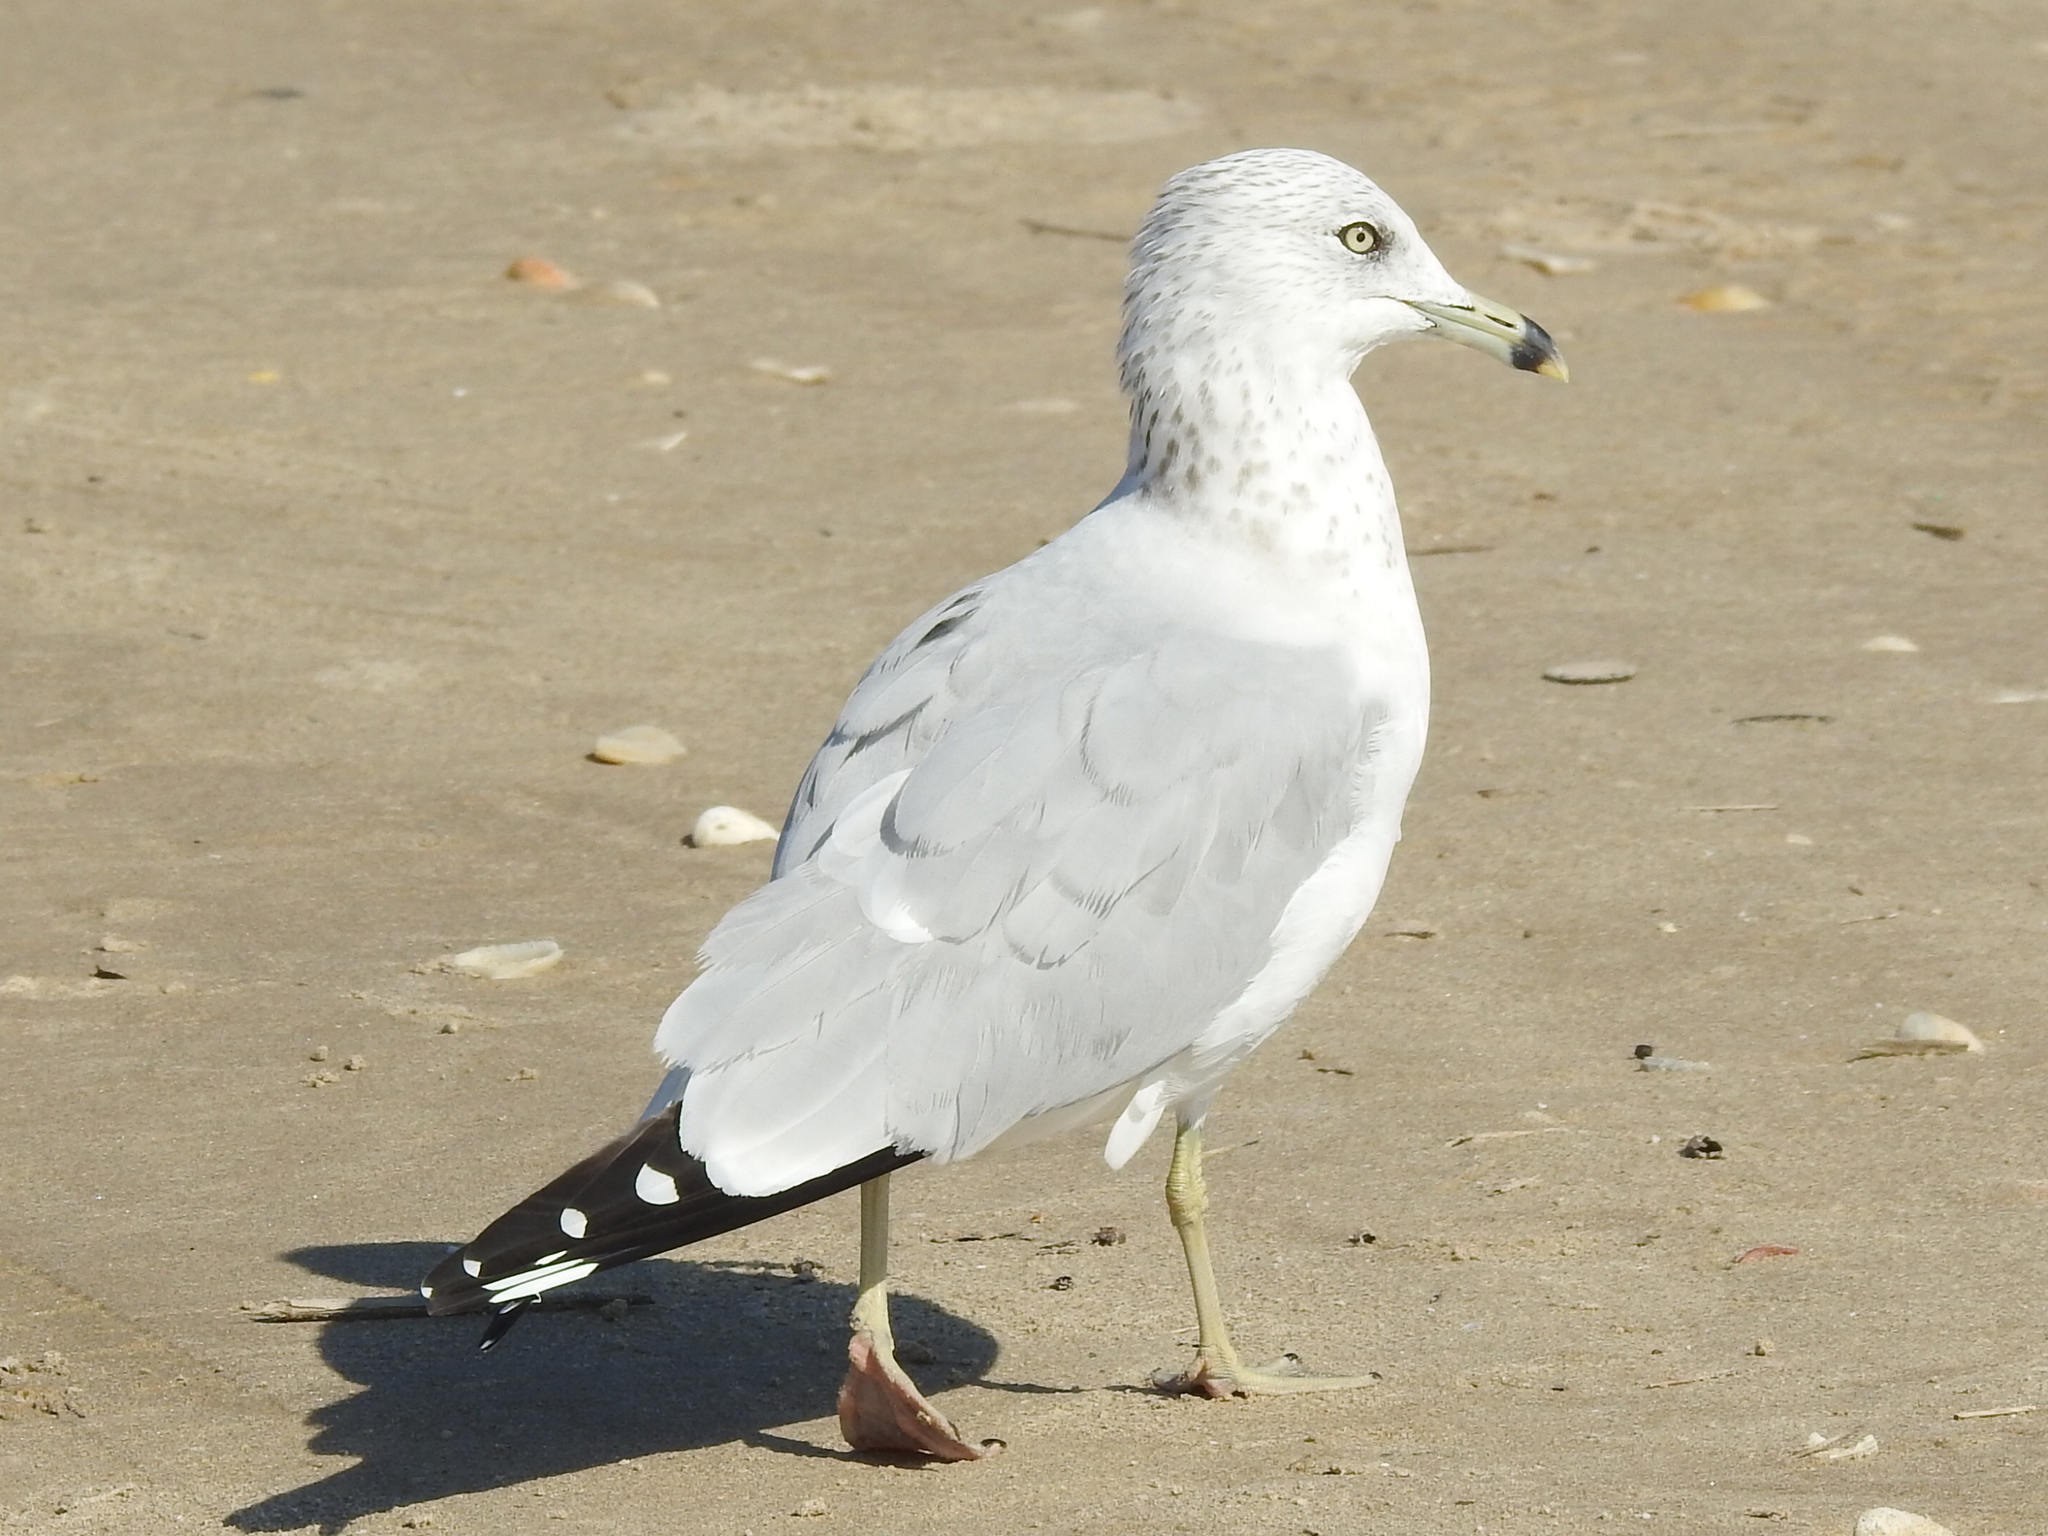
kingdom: Animalia
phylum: Chordata
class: Aves
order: Charadriiformes
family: Laridae
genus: Larus
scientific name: Larus delawarensis
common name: Ring-billed gull
